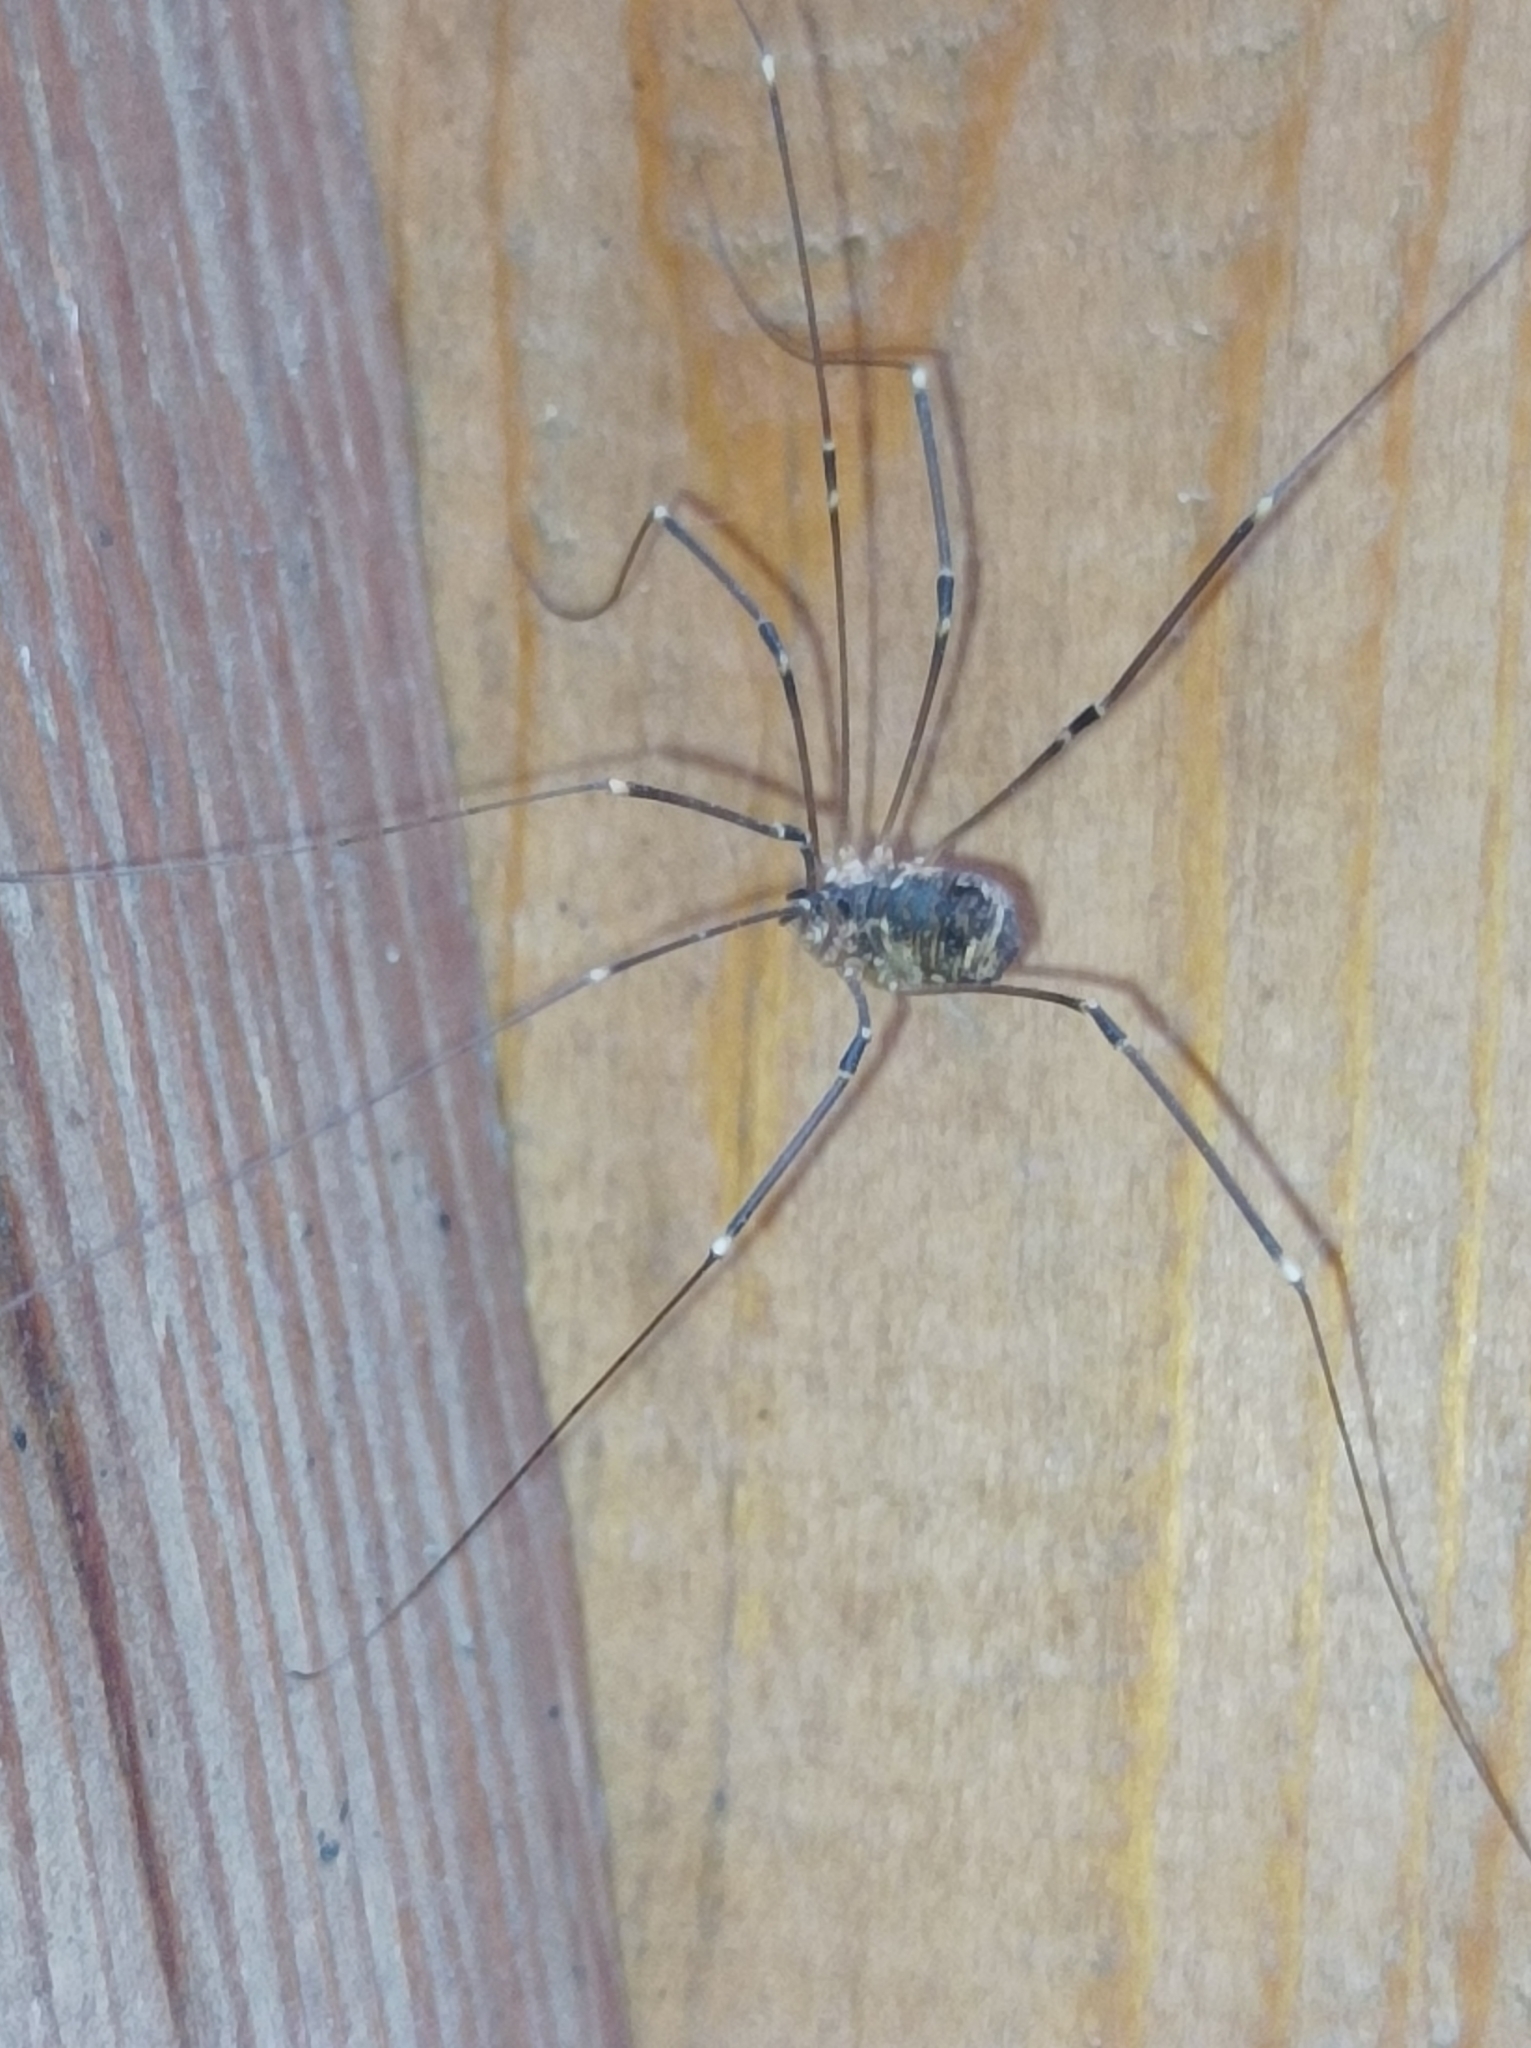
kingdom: Animalia
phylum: Arthropoda
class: Arachnida
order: Opiliones
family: Sclerosomatidae
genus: Leiobunum
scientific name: Leiobunum gracile
